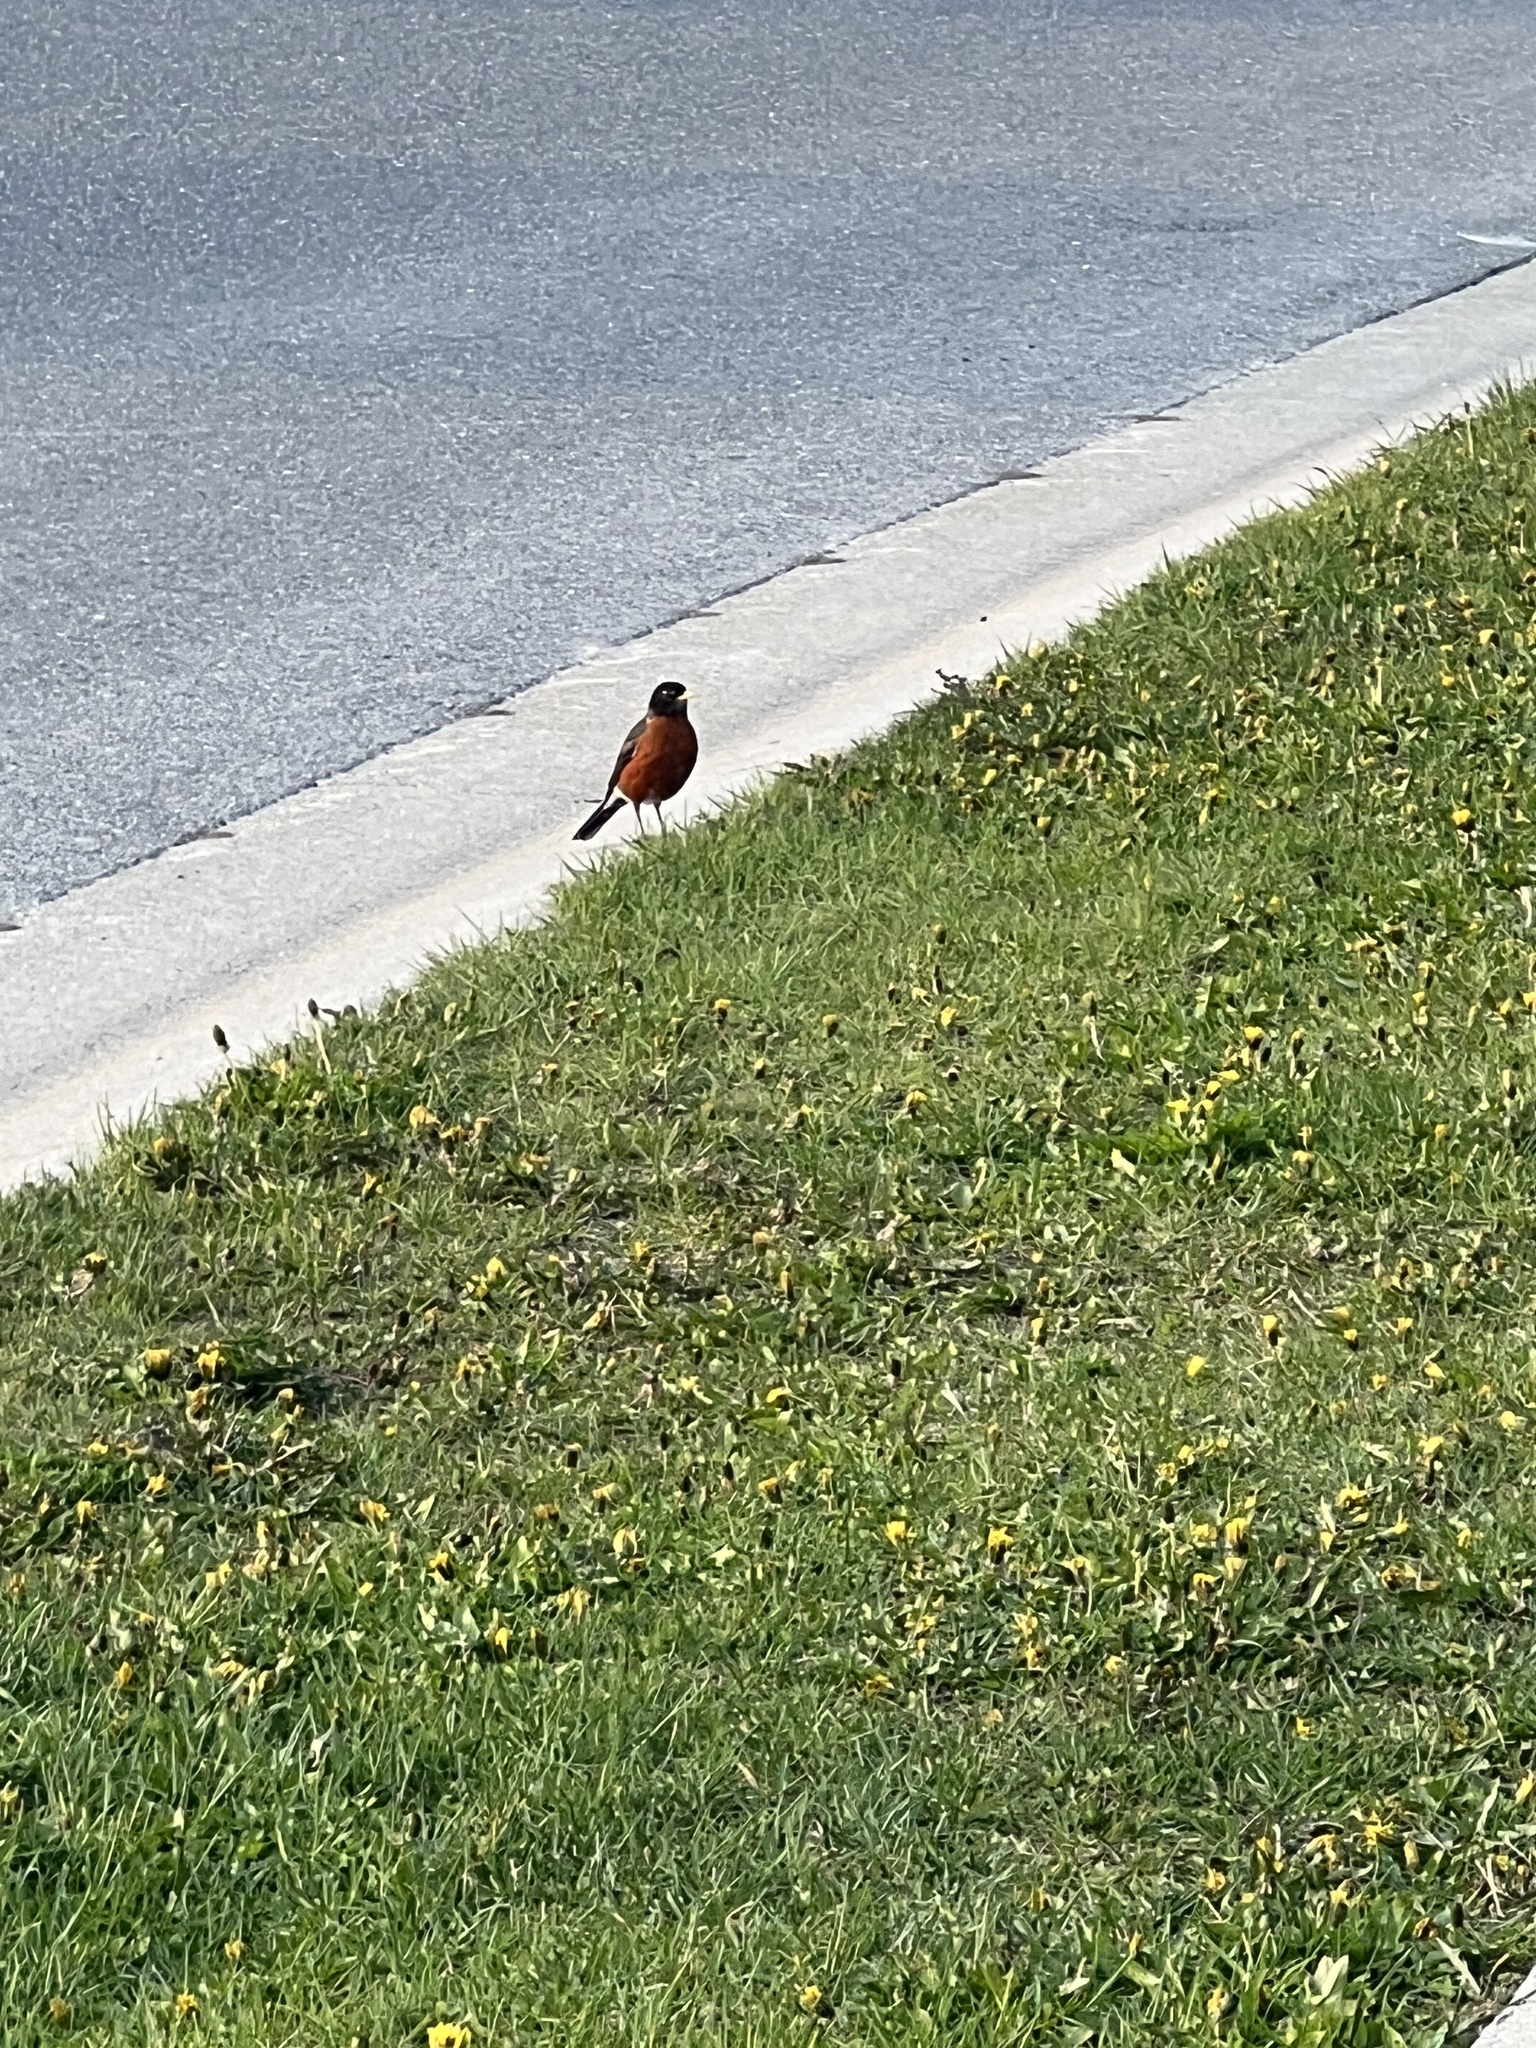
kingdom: Animalia
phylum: Chordata
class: Aves
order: Passeriformes
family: Turdidae
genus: Turdus
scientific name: Turdus migratorius
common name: American robin
